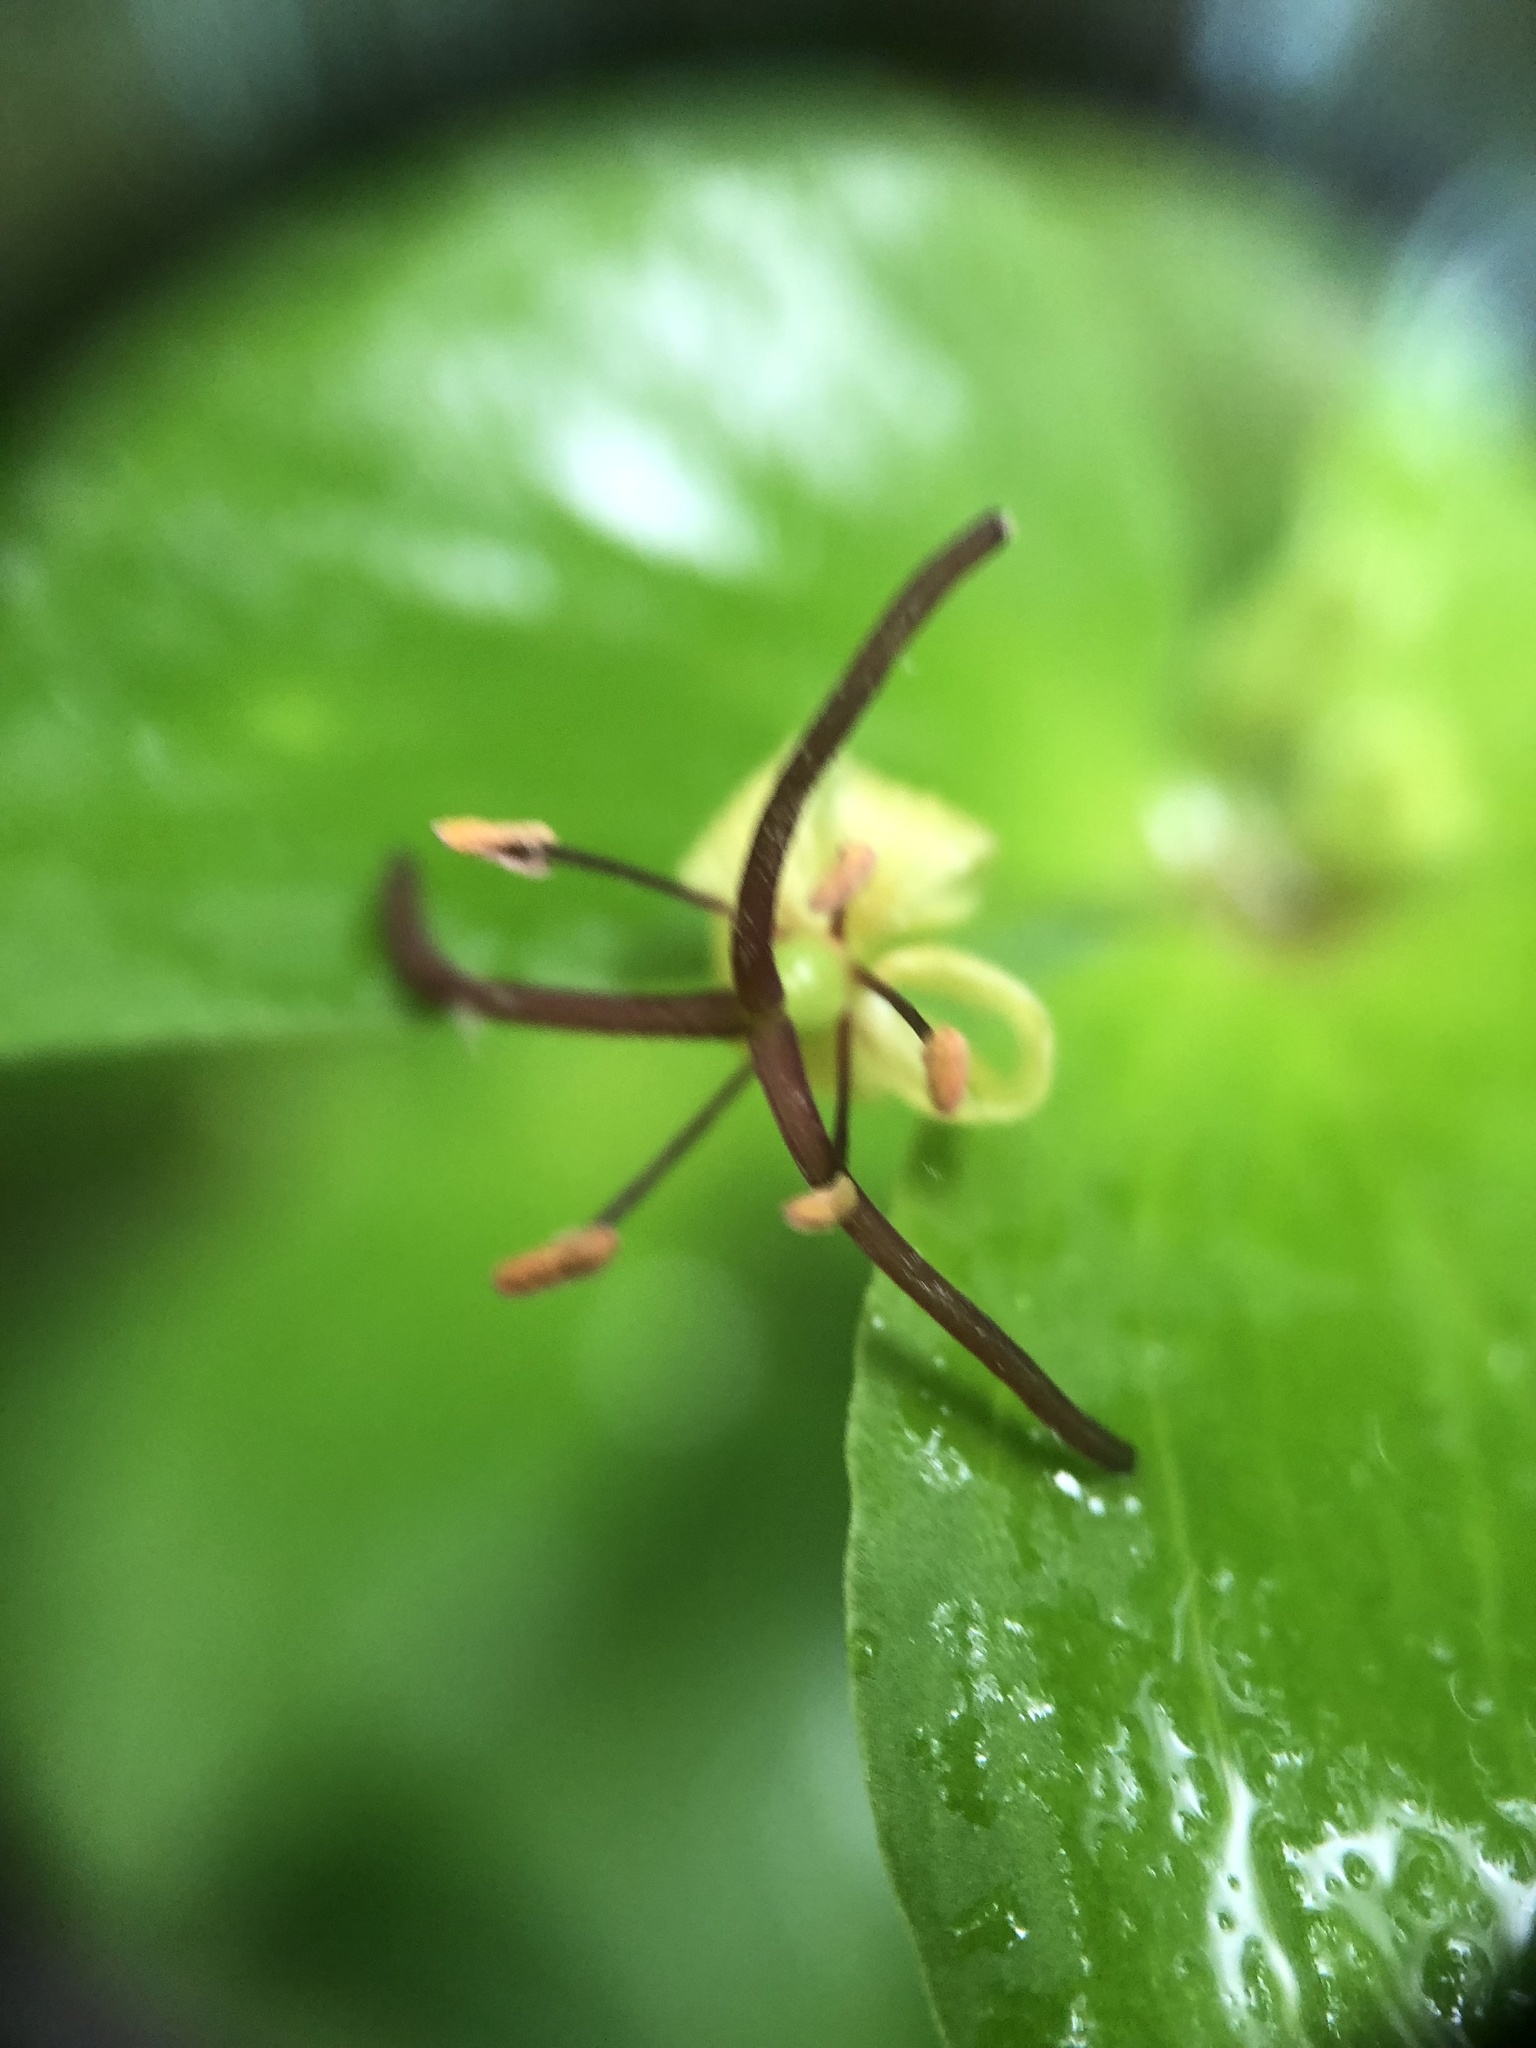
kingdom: Plantae
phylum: Tracheophyta
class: Liliopsida
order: Liliales
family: Liliaceae
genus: Medeola
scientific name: Medeola virginiana
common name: Indian cucumber-root
